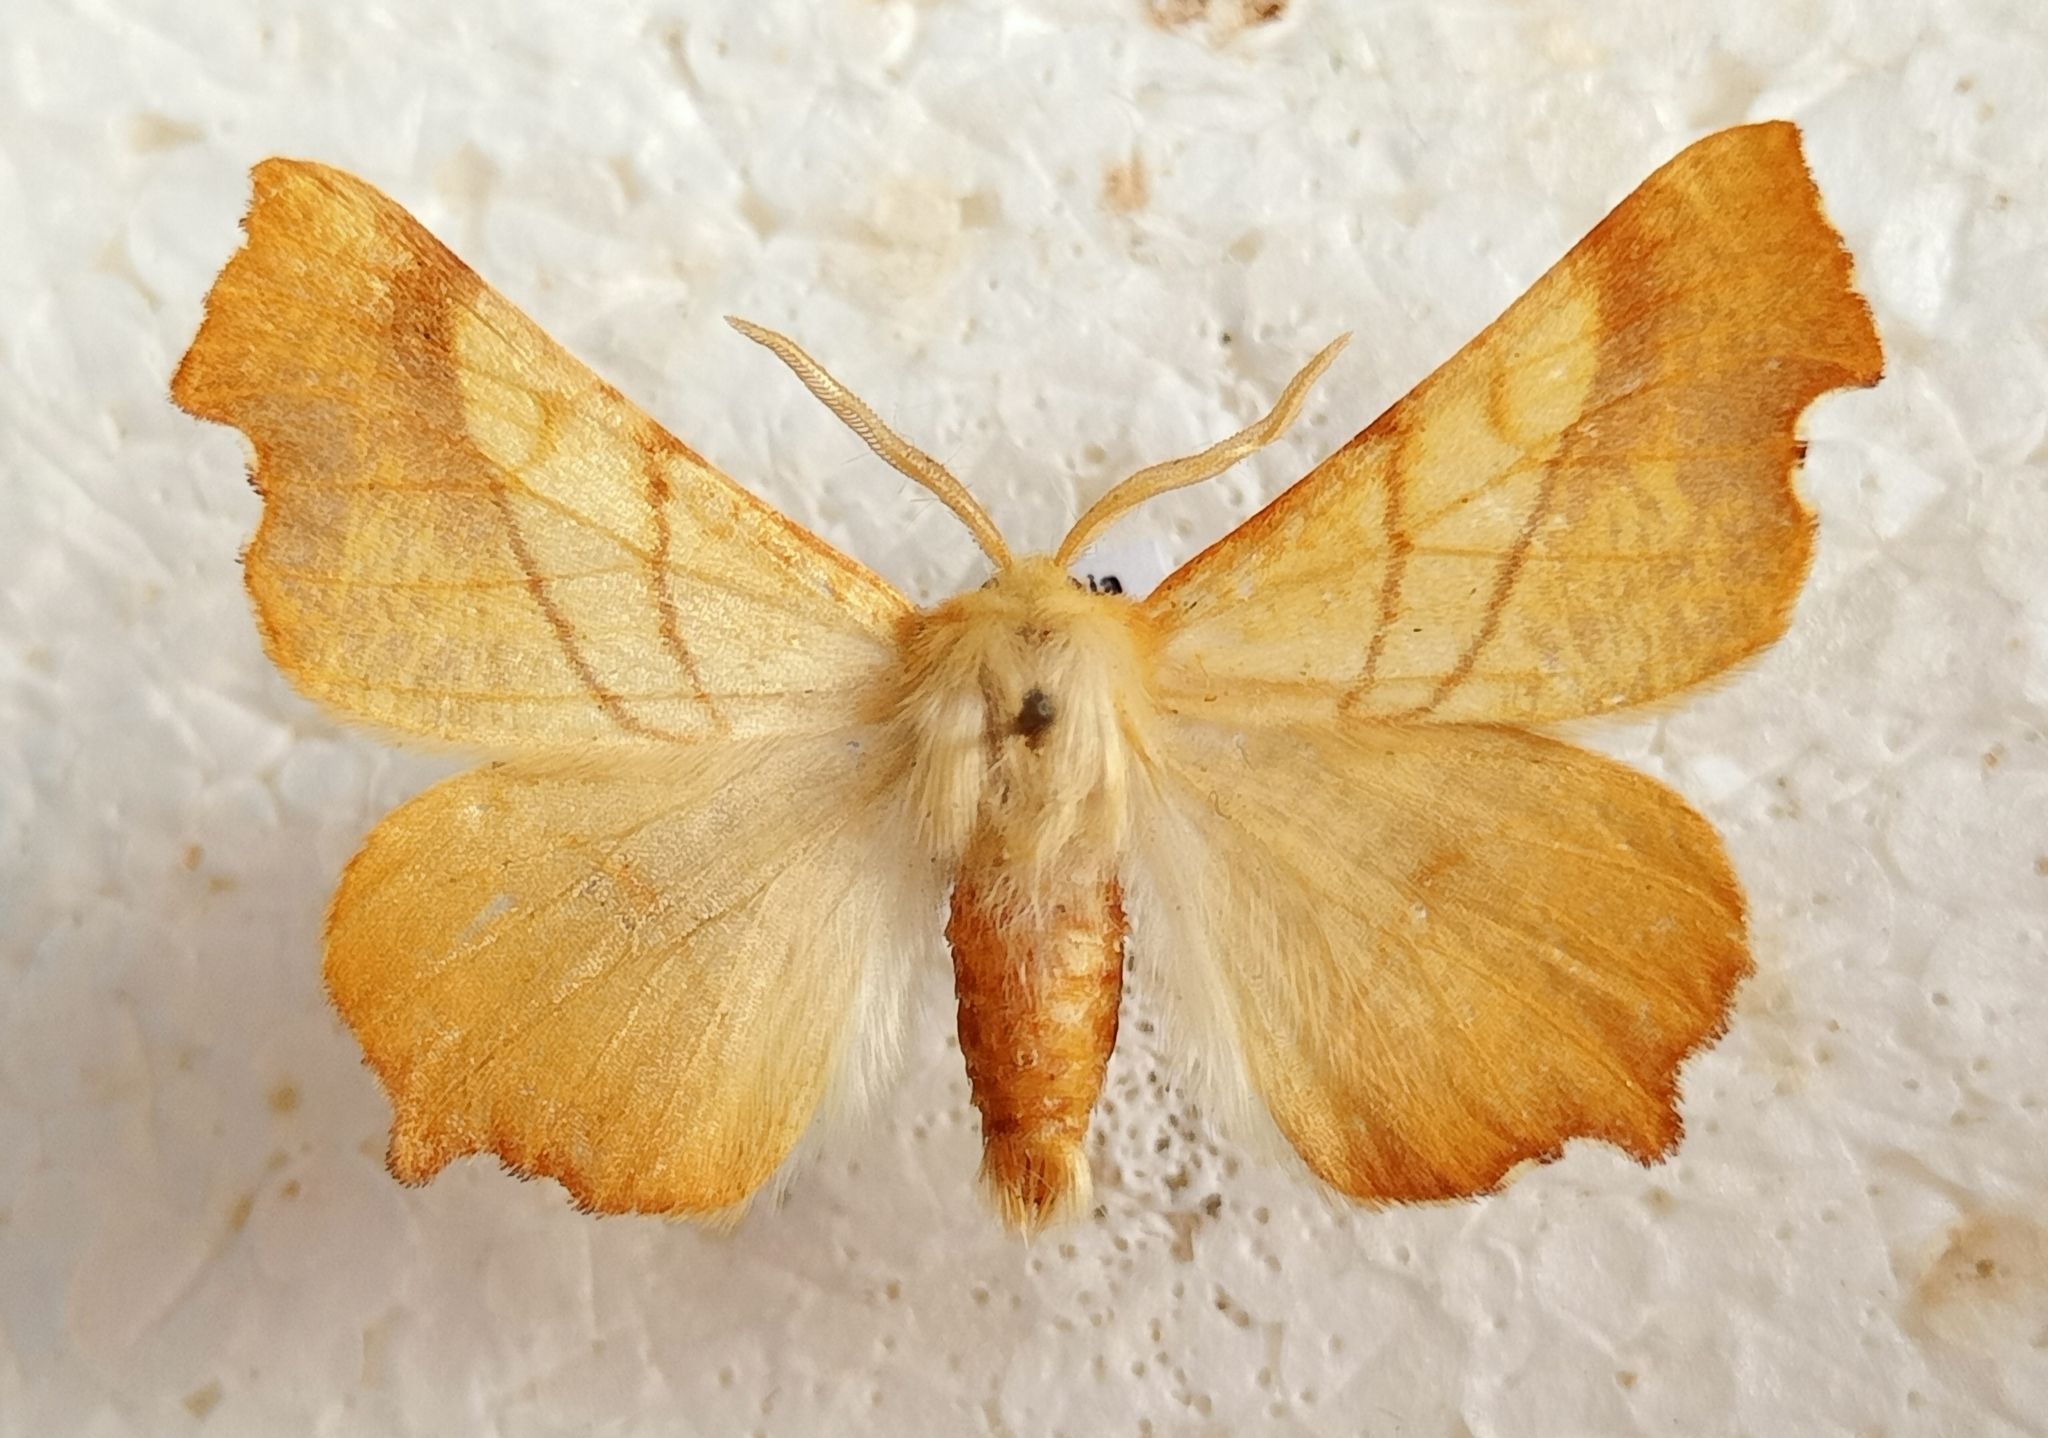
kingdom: Animalia
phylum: Arthropoda
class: Insecta
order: Lepidoptera
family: Geometridae
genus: Ennomos
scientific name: Ennomos fuscantaria
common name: Dusky thorn
